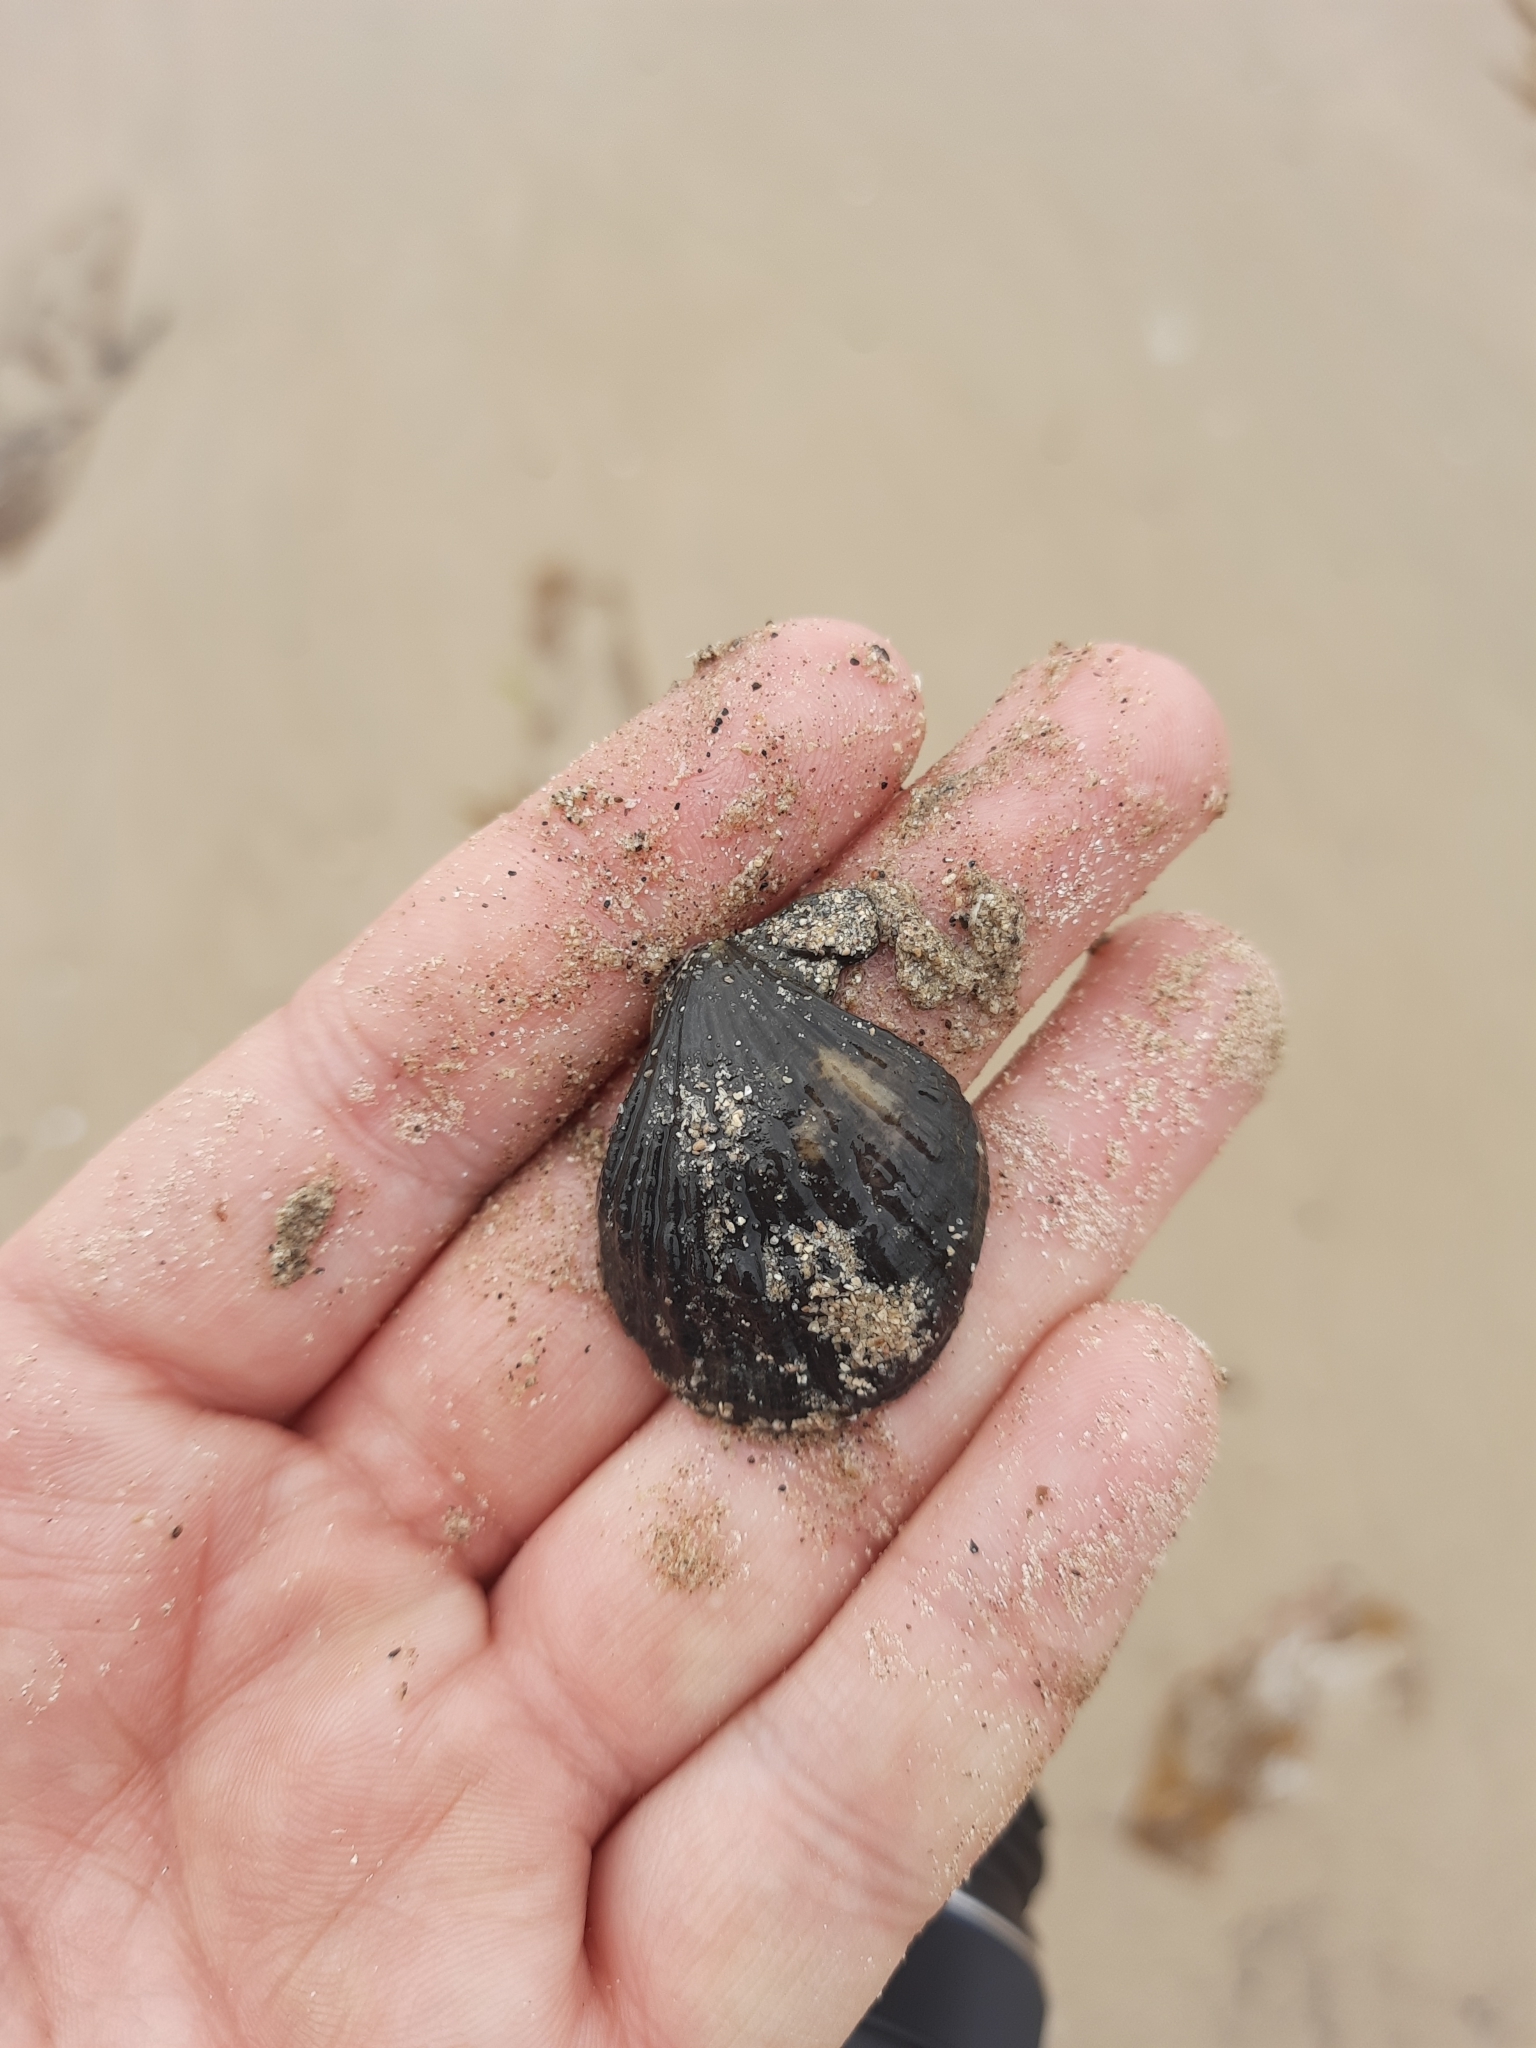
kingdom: Animalia
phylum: Mollusca
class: Bivalvia
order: Pectinida
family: Pectinidae
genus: Talochlamys
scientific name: Talochlamys zelandiae
